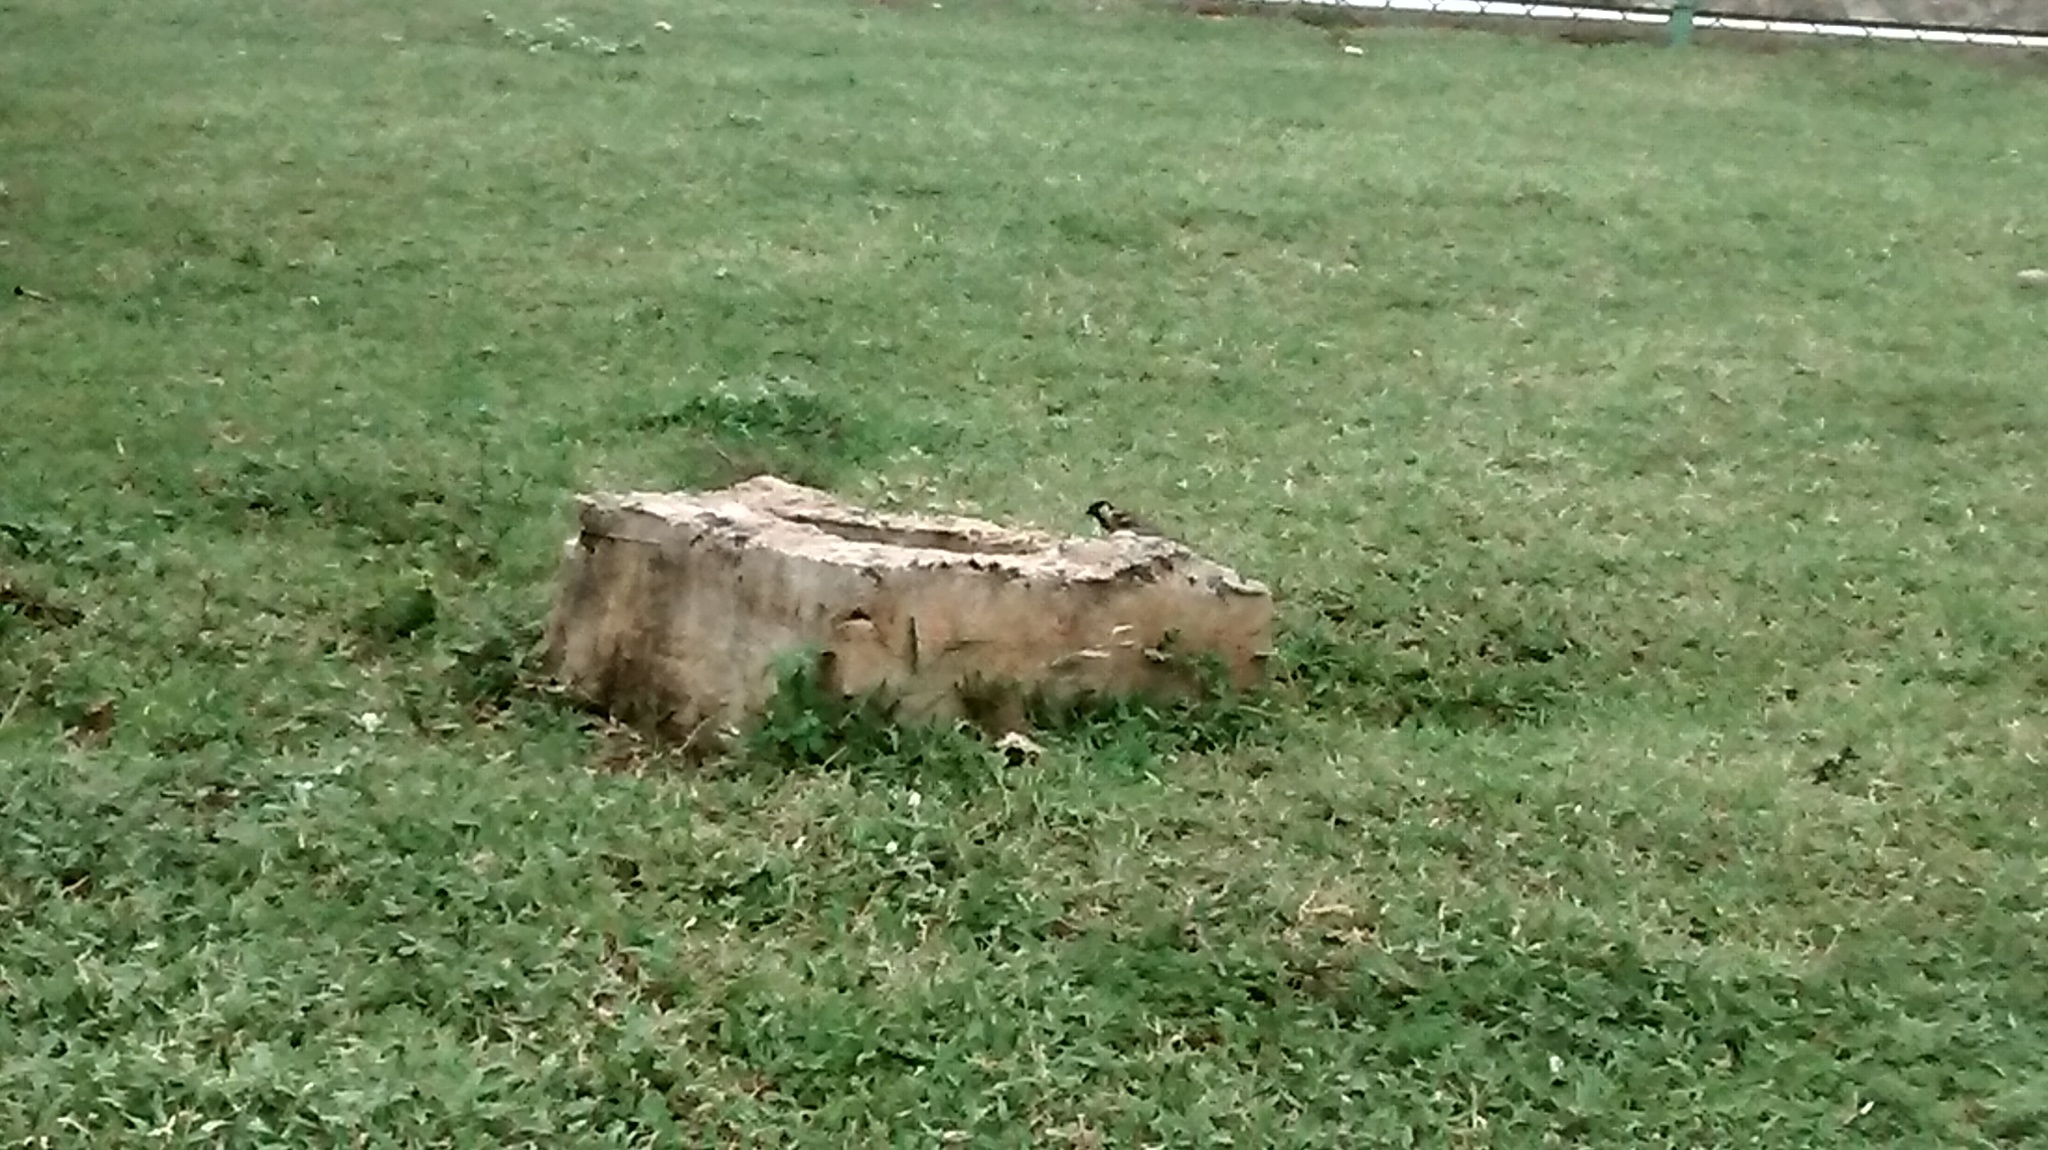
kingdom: Animalia
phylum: Chordata
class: Aves
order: Passeriformes
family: Passeridae
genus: Passer
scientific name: Passer domesticus
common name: House sparrow
